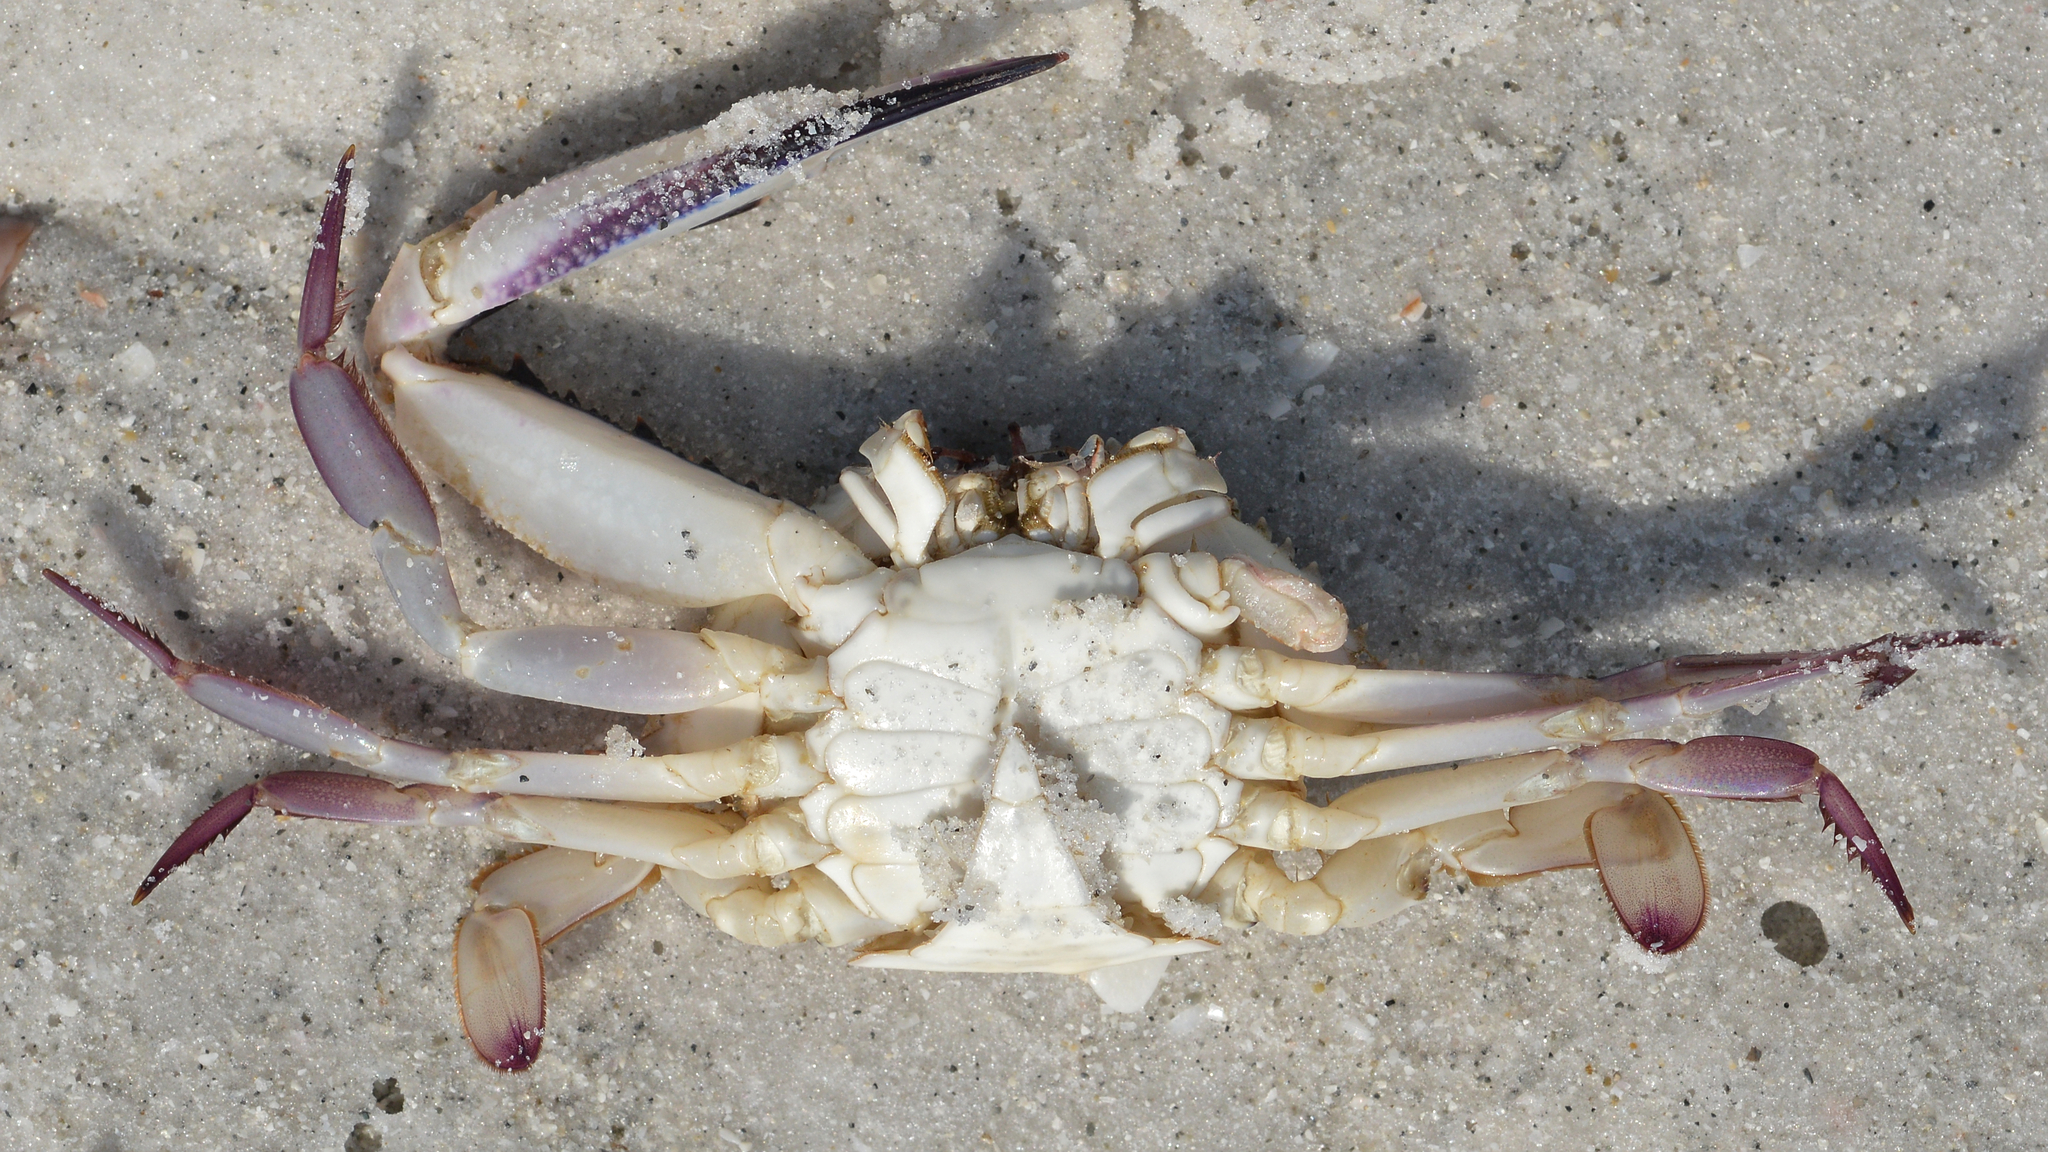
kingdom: Animalia
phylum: Arthropoda
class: Malacostraca
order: Decapoda
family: Portunidae
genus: Achelous
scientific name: Achelous gibbesii
